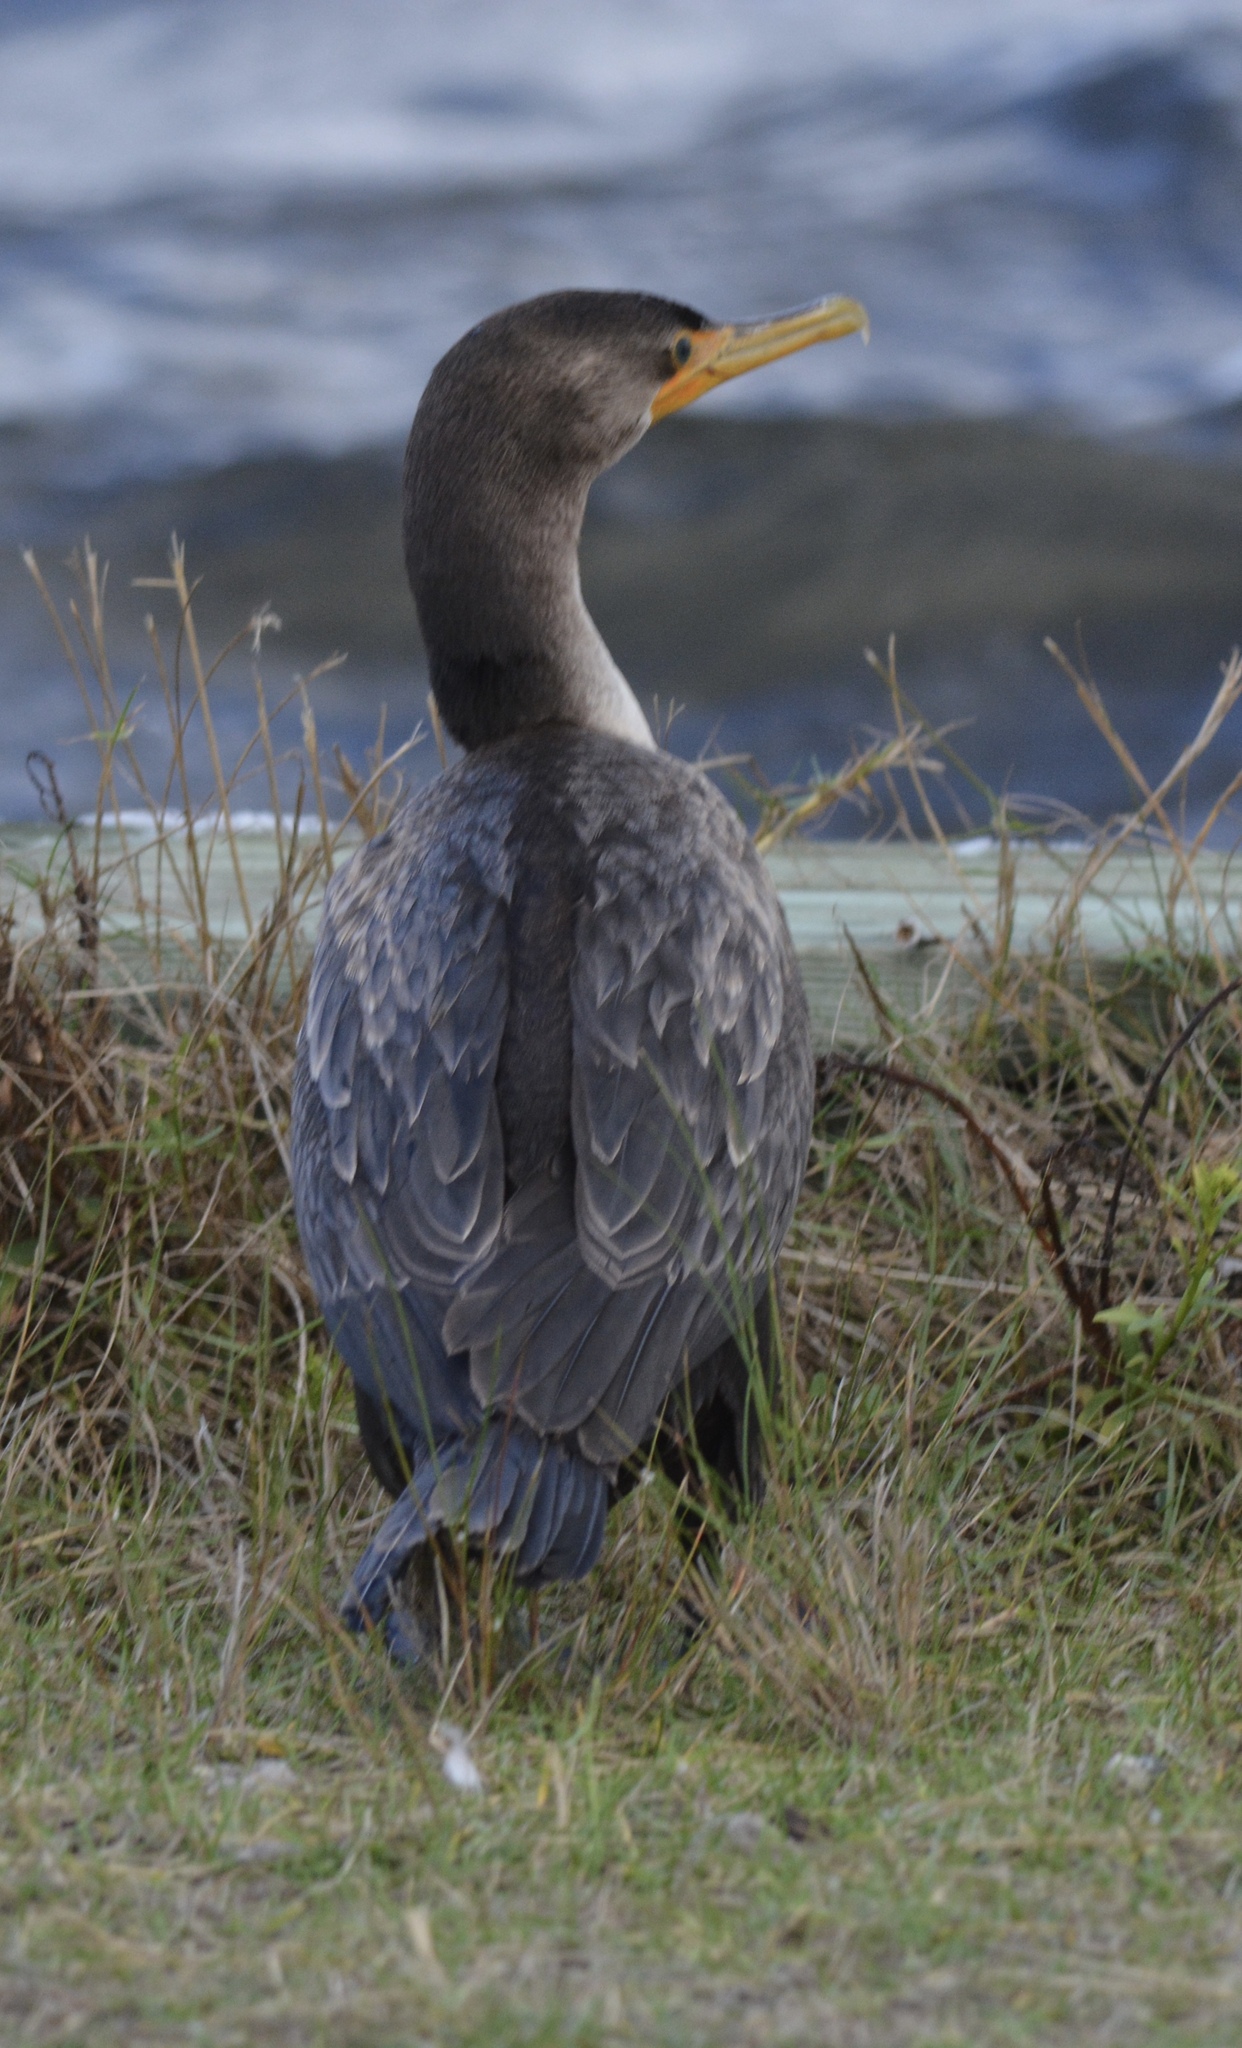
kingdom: Animalia
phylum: Chordata
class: Aves
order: Suliformes
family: Phalacrocoracidae
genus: Phalacrocorax
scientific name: Phalacrocorax auritus
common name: Double-crested cormorant
